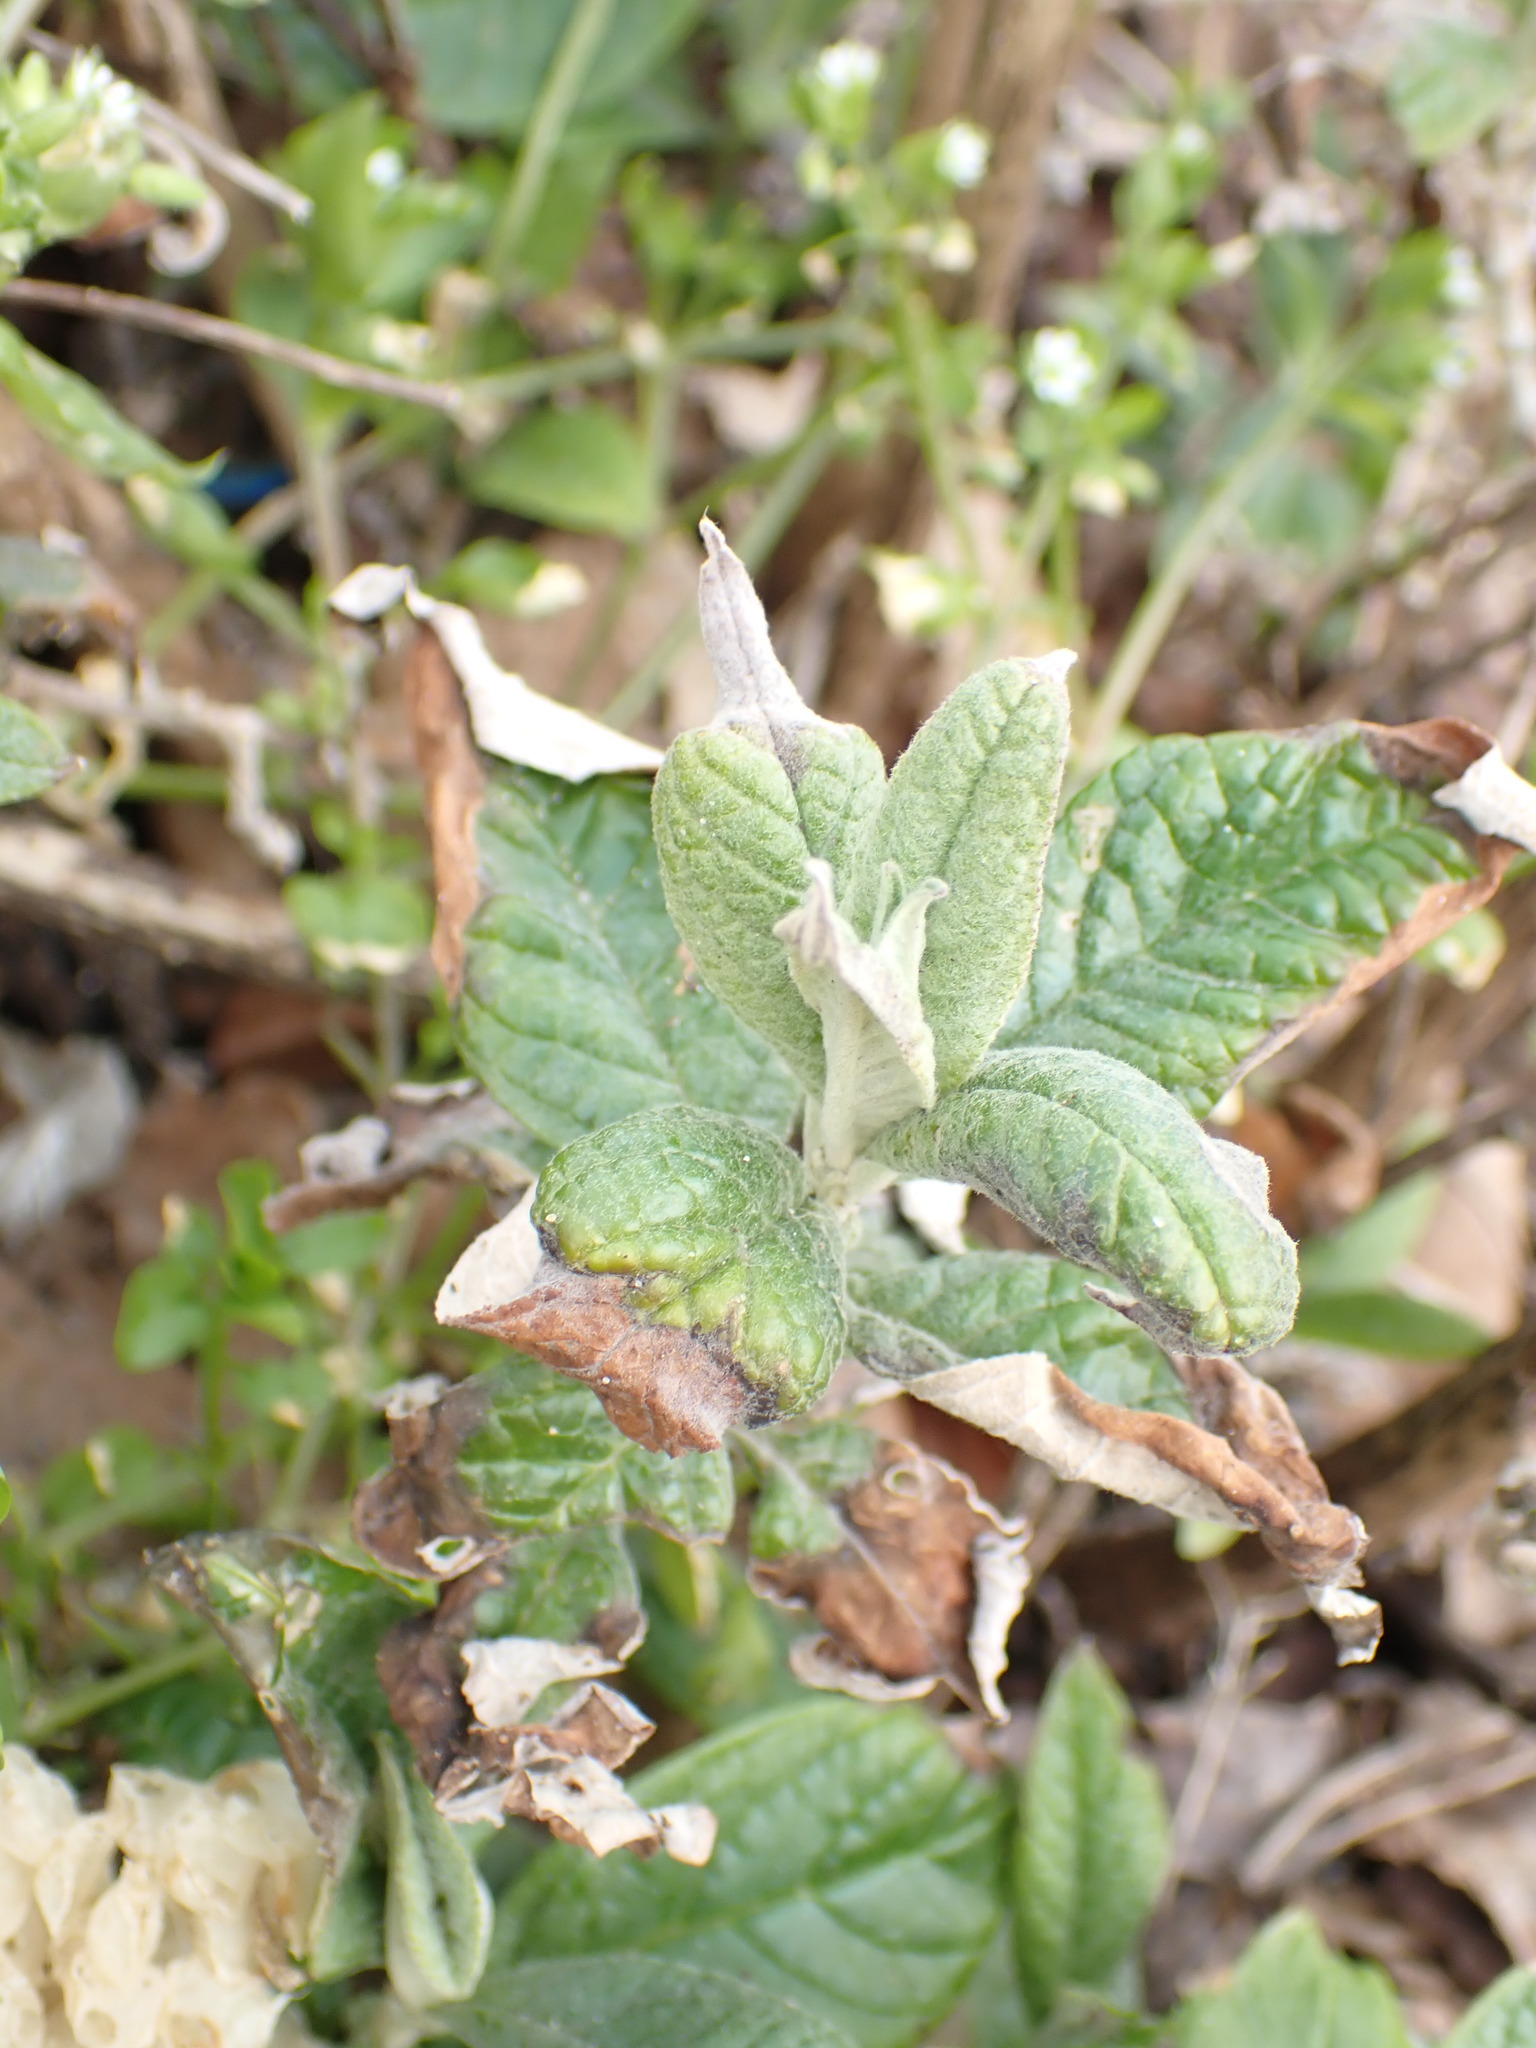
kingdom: Plantae
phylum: Tracheophyta
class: Magnoliopsida
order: Lamiales
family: Scrophulariaceae
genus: Buddleja
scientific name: Buddleja davidii
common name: Butterfly-bush
